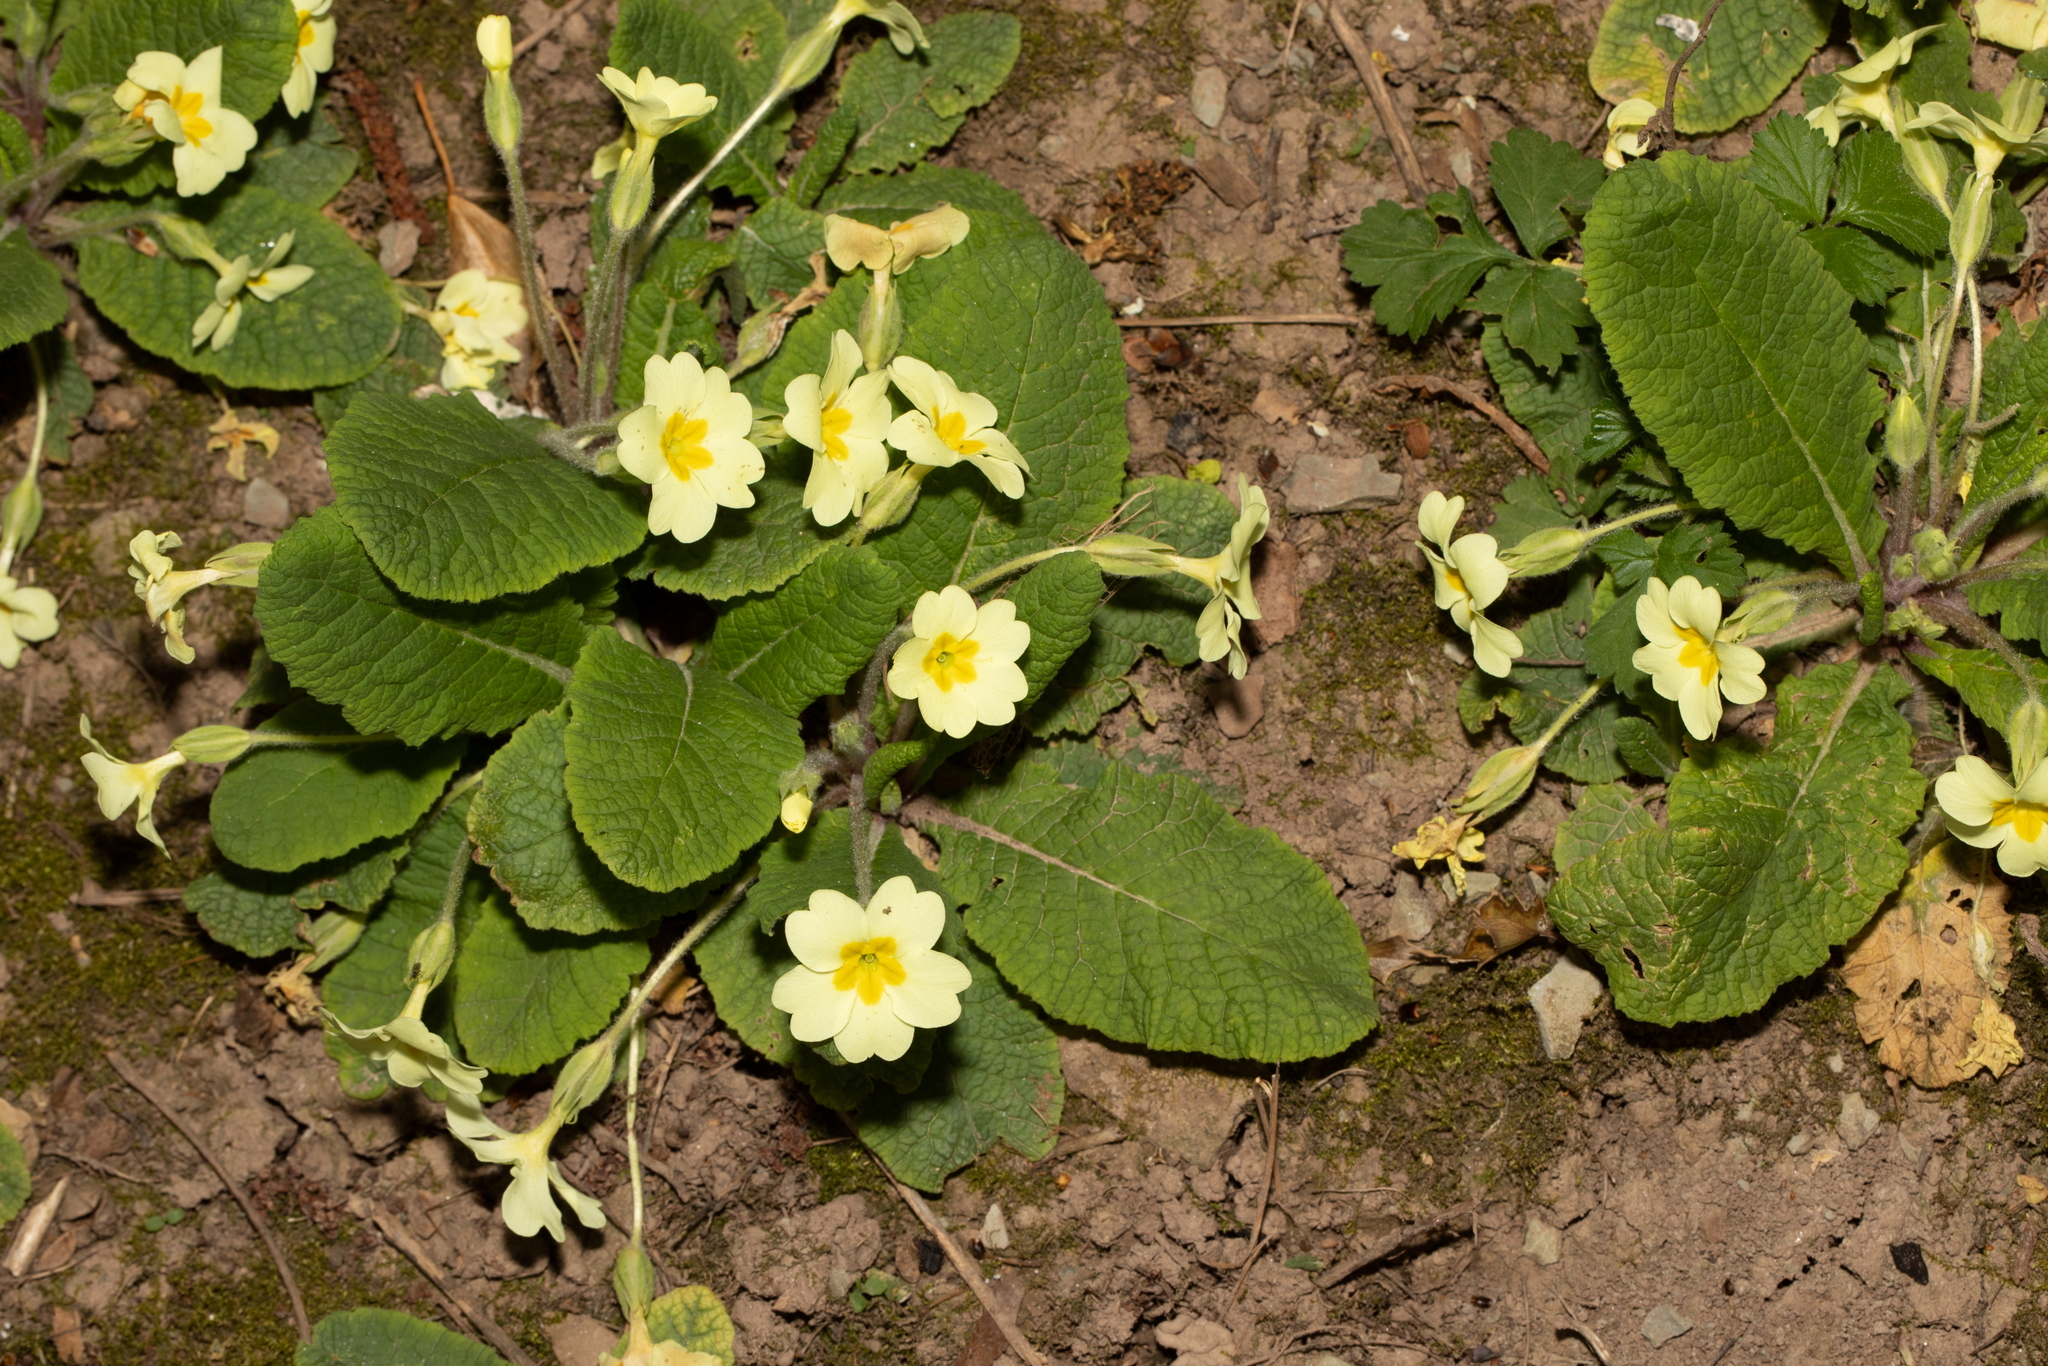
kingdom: Plantae
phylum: Tracheophyta
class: Magnoliopsida
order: Ericales
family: Primulaceae
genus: Primula
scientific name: Primula vulgaris
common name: Primrose
